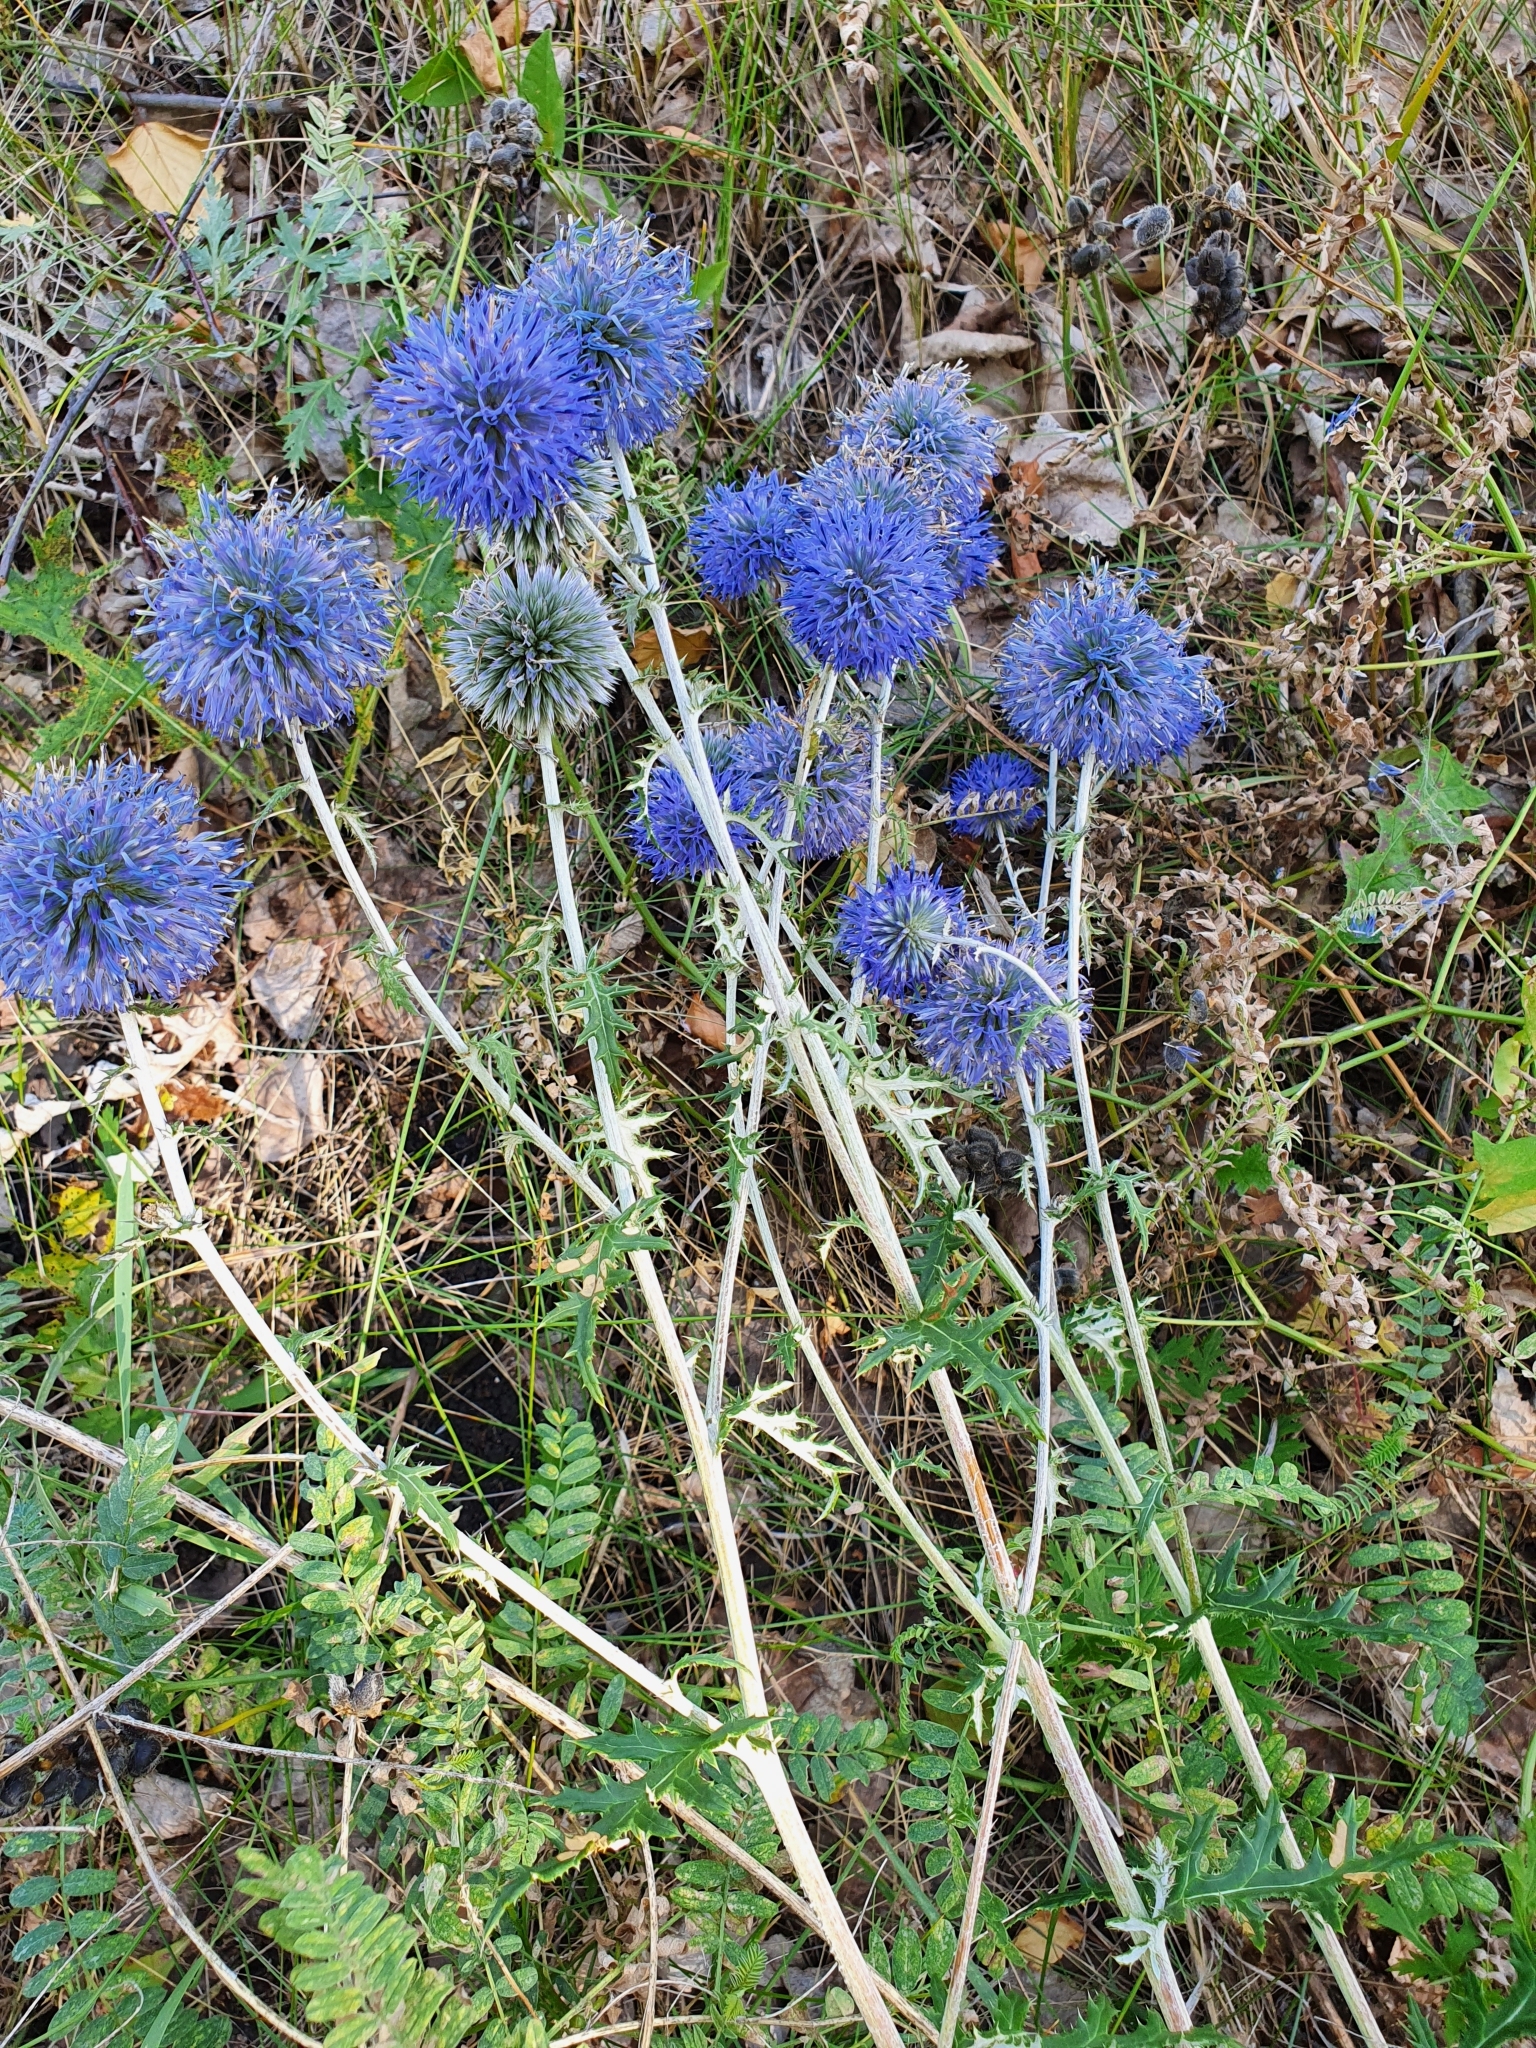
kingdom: Plantae
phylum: Tracheophyta
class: Magnoliopsida
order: Asterales
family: Asteraceae
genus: Echinops
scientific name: Echinops ritro
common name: Globe thistle
